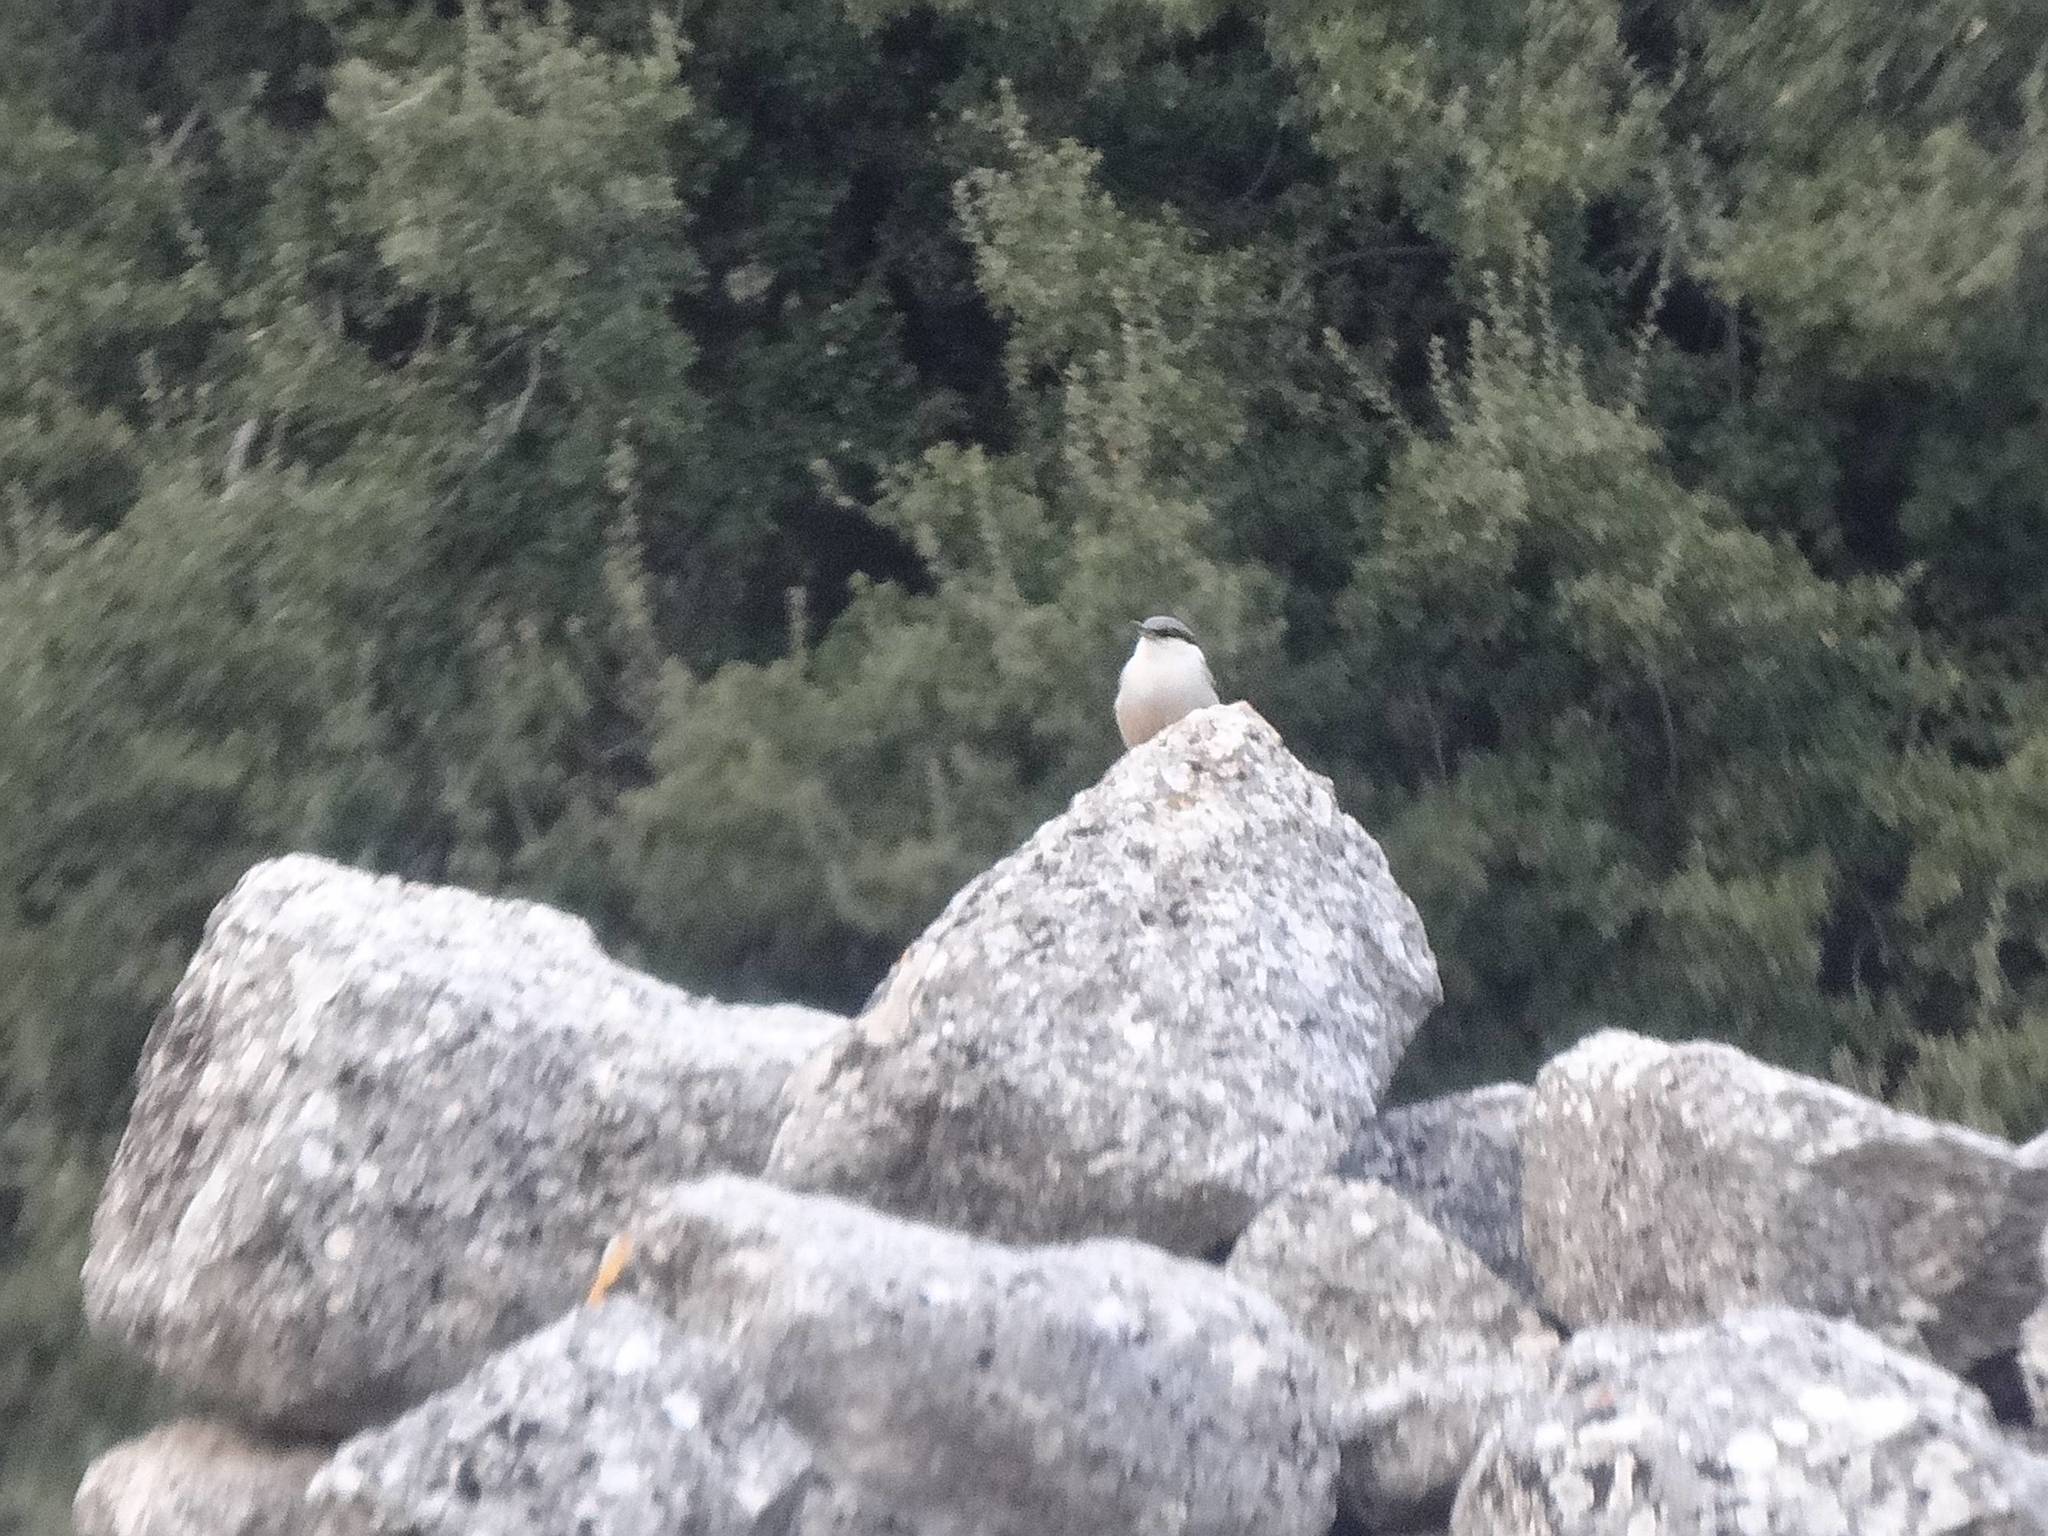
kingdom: Animalia
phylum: Chordata
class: Aves
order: Passeriformes
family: Sittidae
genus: Sitta
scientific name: Sitta neumayer
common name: Western rock nuthatch
